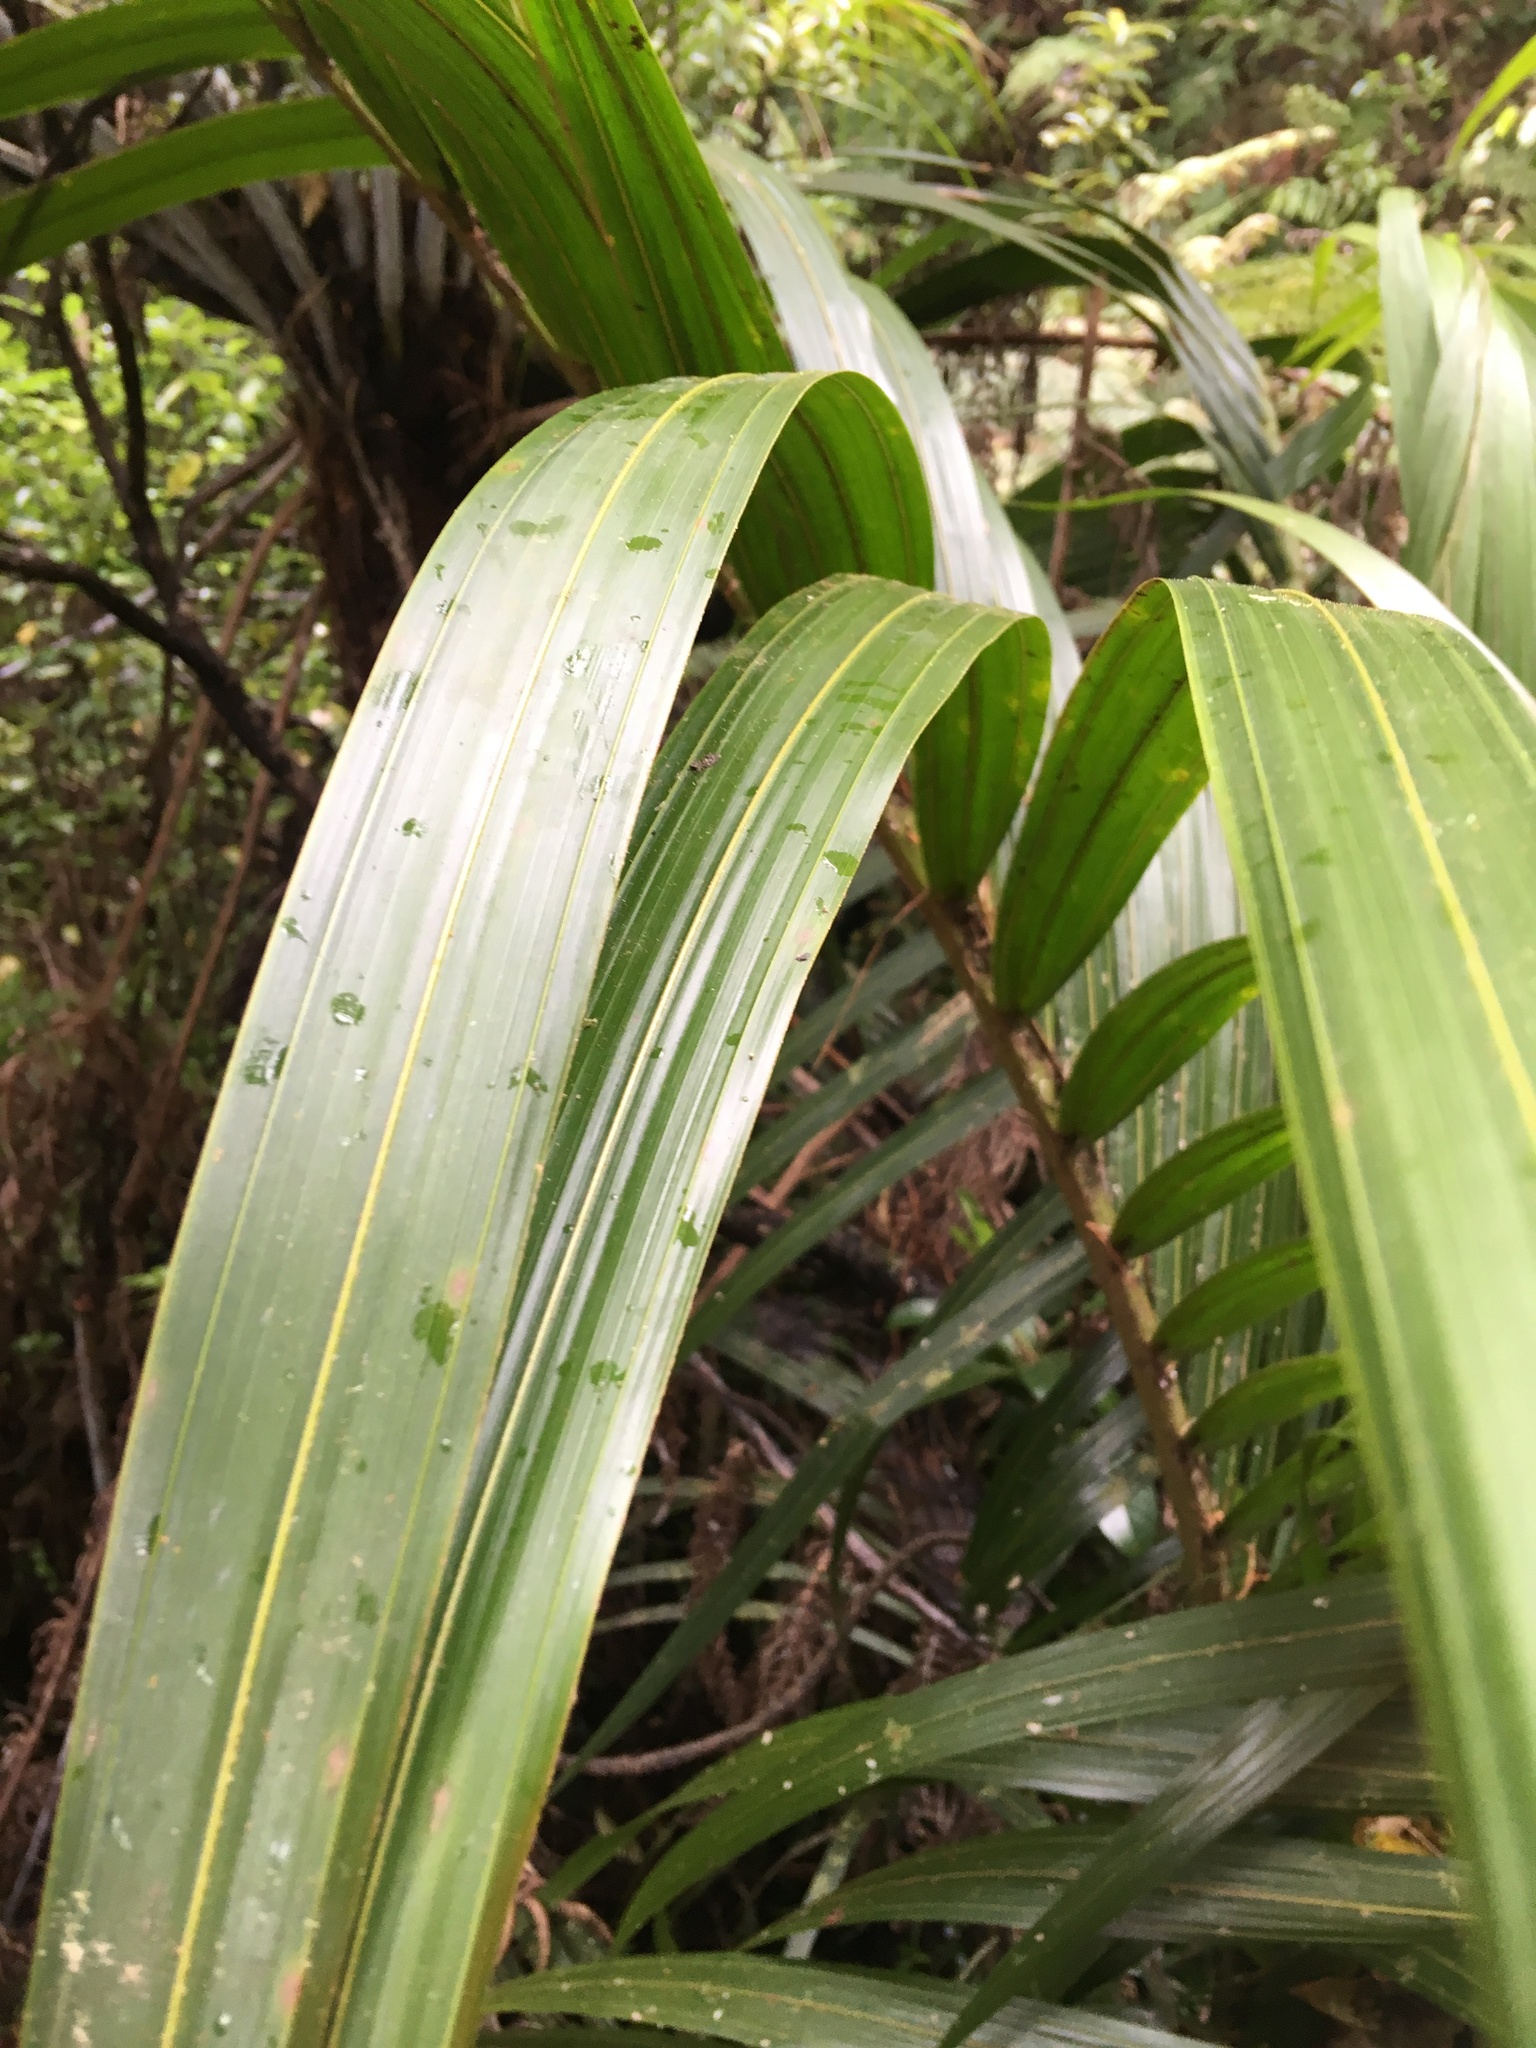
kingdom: Plantae
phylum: Tracheophyta
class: Liliopsida
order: Arecales
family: Arecaceae
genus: Rhopalostylis
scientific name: Rhopalostylis sapida
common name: Feather-duster palm
